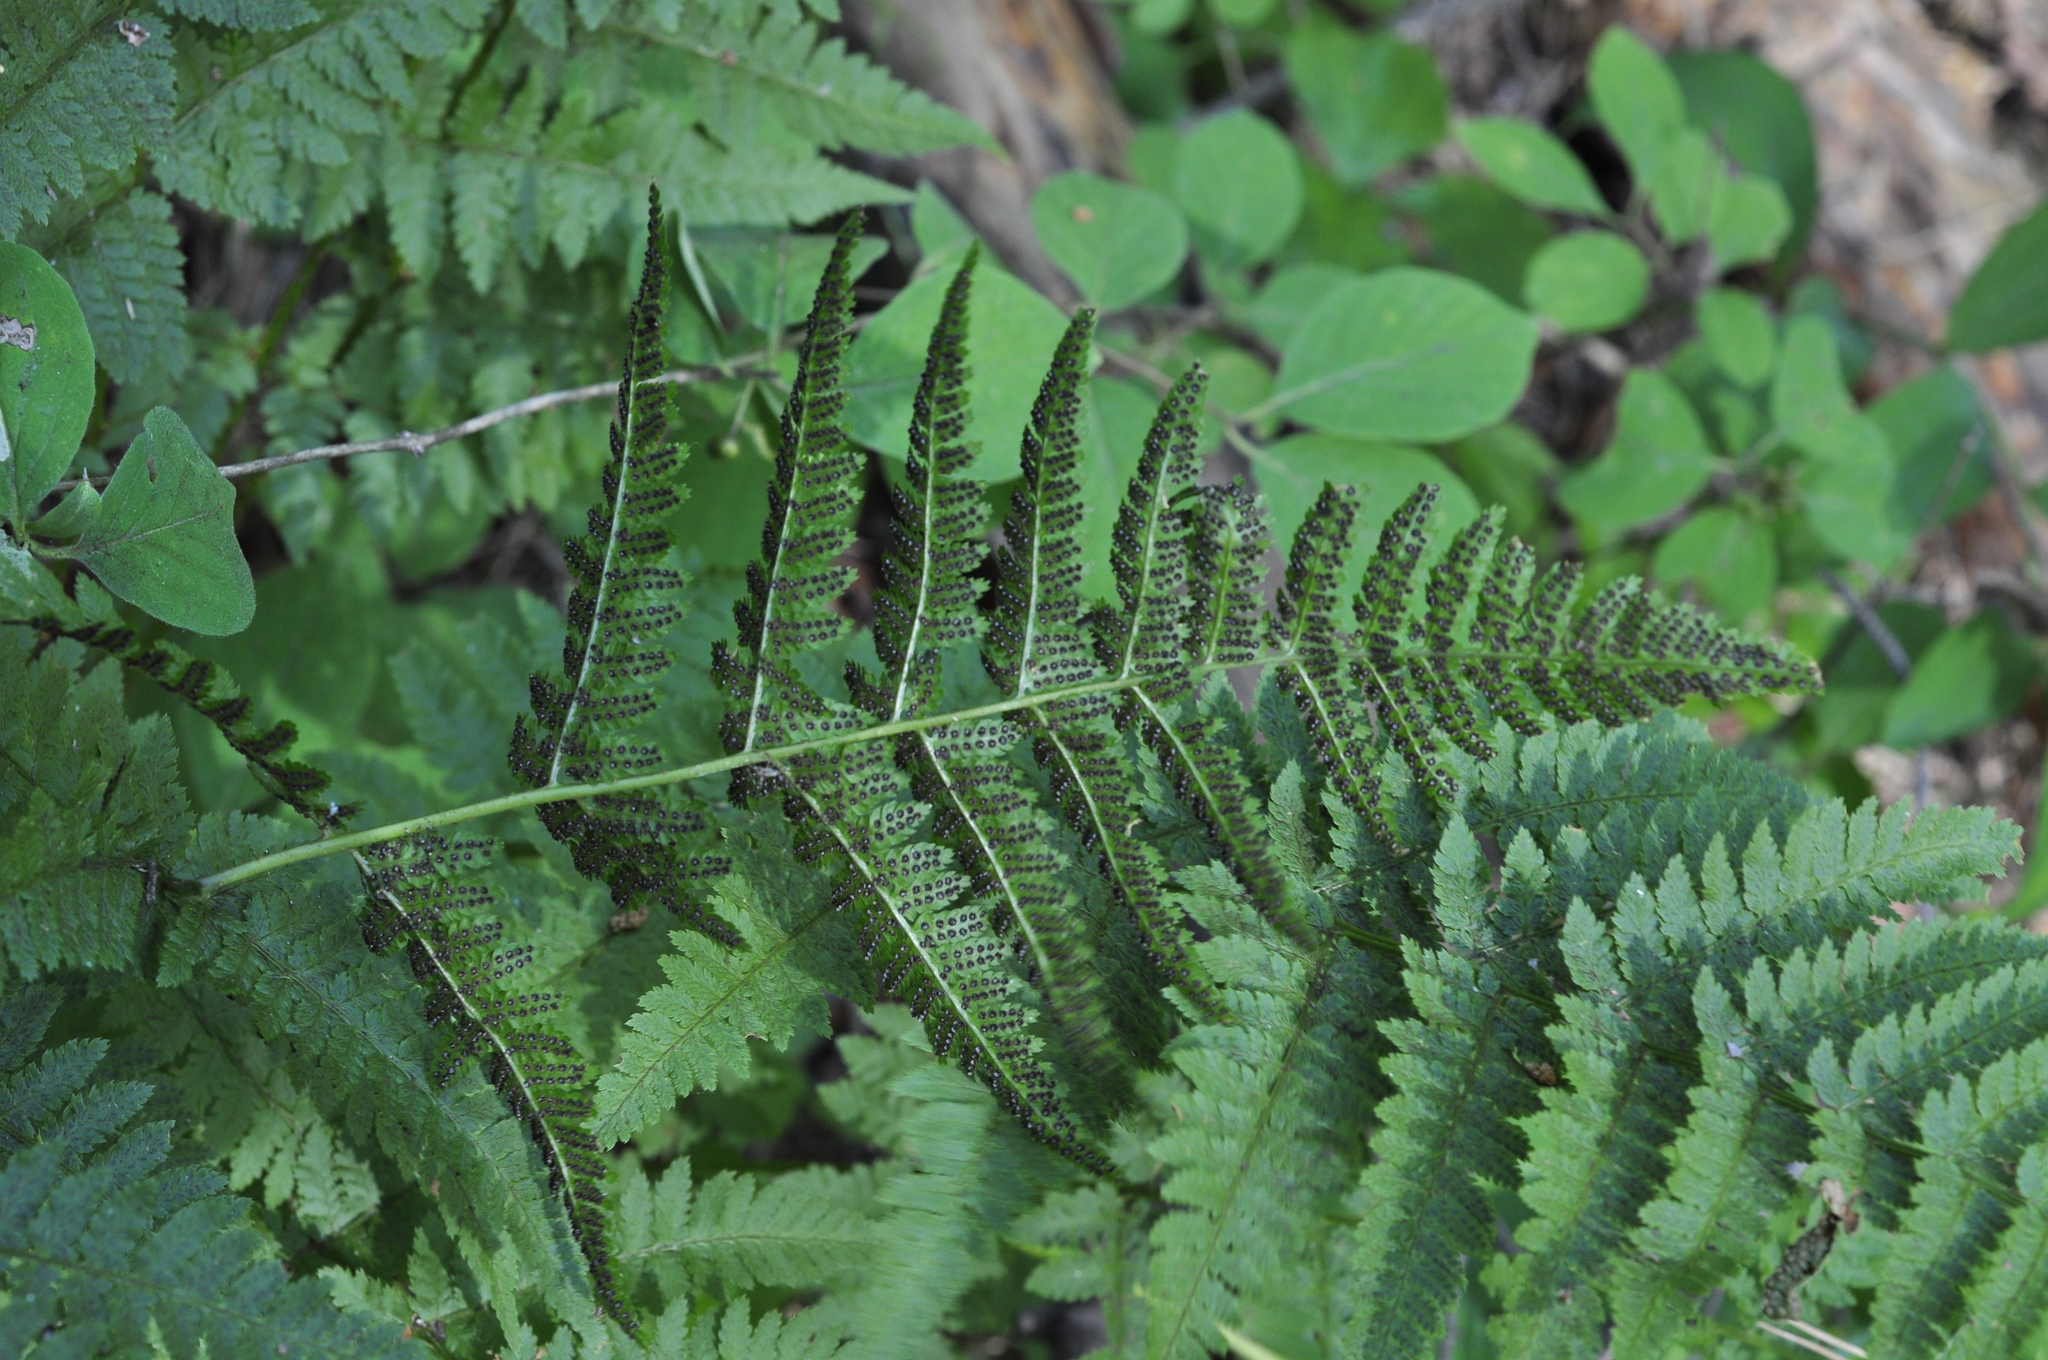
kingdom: Plantae
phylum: Tracheophyta
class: Polypodiopsida
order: Polypodiales
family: Dryopteridaceae
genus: Dryopteris
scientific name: Dryopteris carthusiana
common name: Narrow buckler-fern
